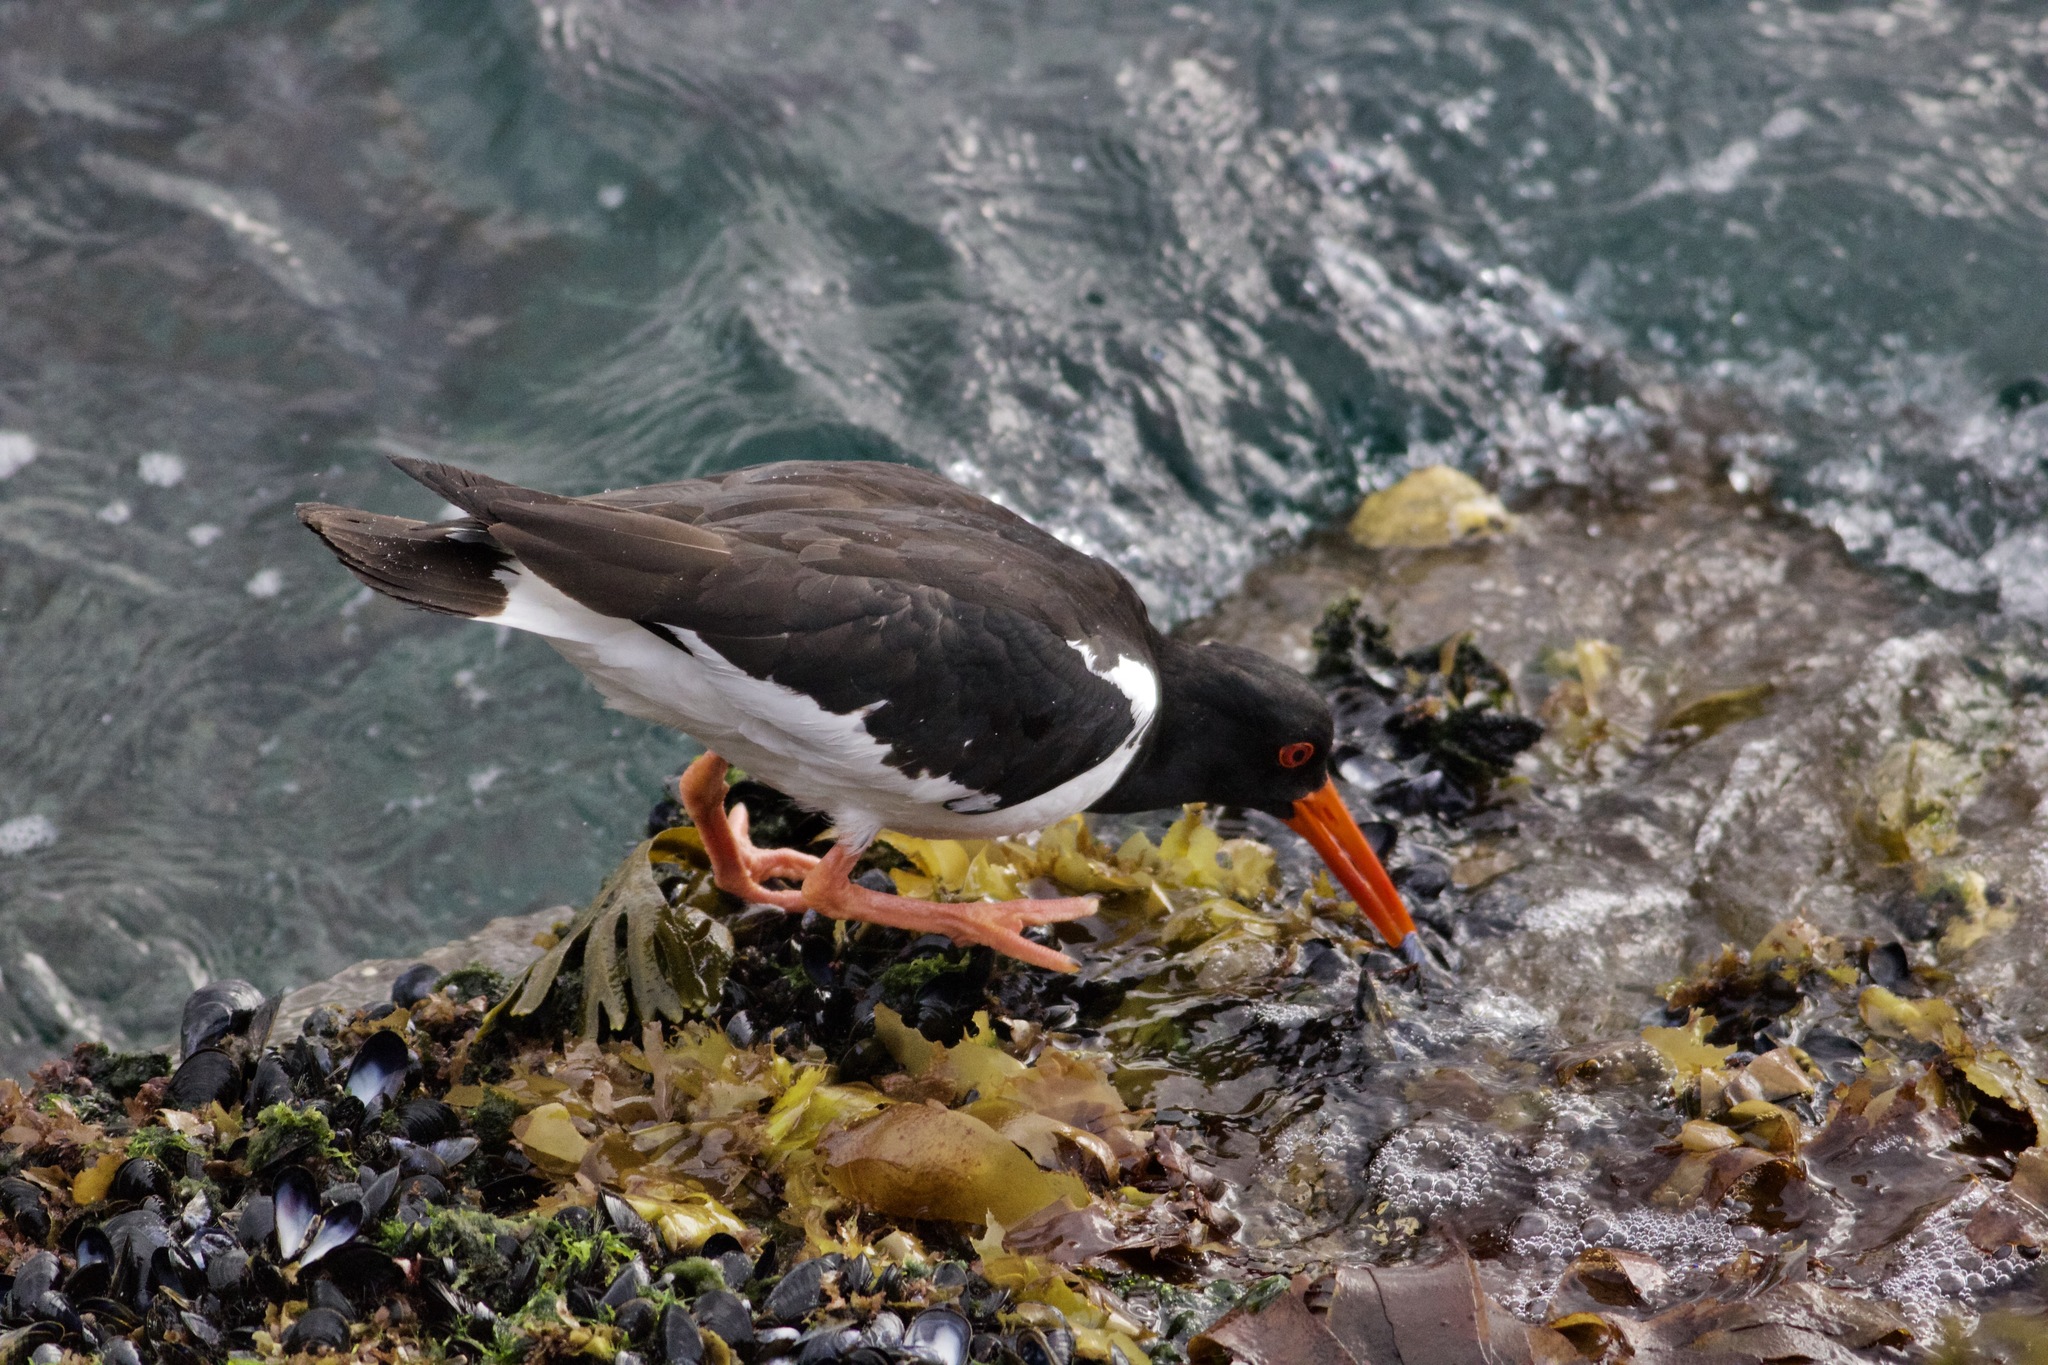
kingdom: Animalia
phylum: Chordata
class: Aves
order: Charadriiformes
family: Haematopodidae
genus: Haematopus
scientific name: Haematopus ostralegus
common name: Eurasian oystercatcher
